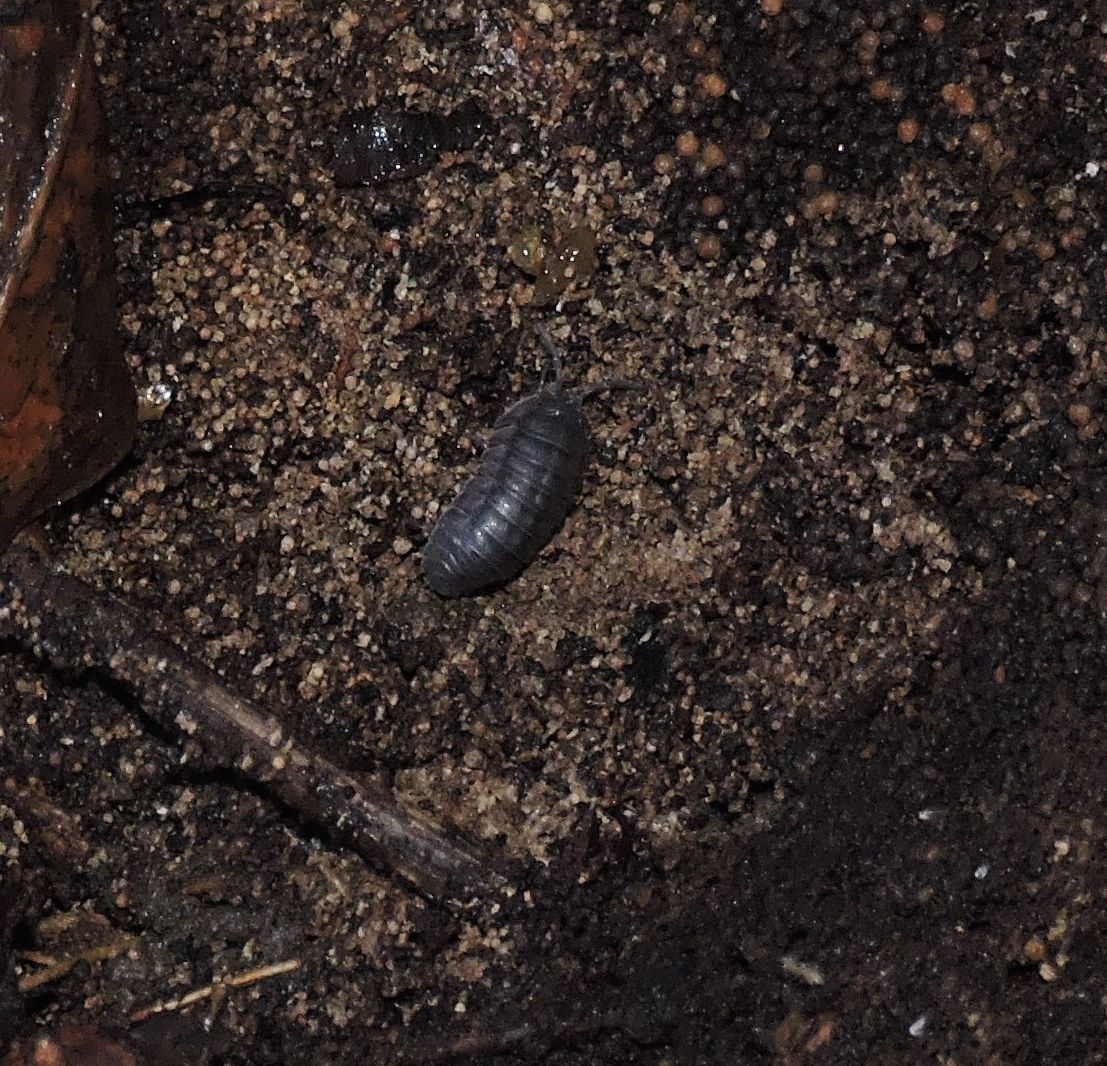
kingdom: Animalia
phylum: Arthropoda
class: Malacostraca
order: Isopoda
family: Armadillidiidae
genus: Armadillidium
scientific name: Armadillidium nasatum
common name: Isopod
